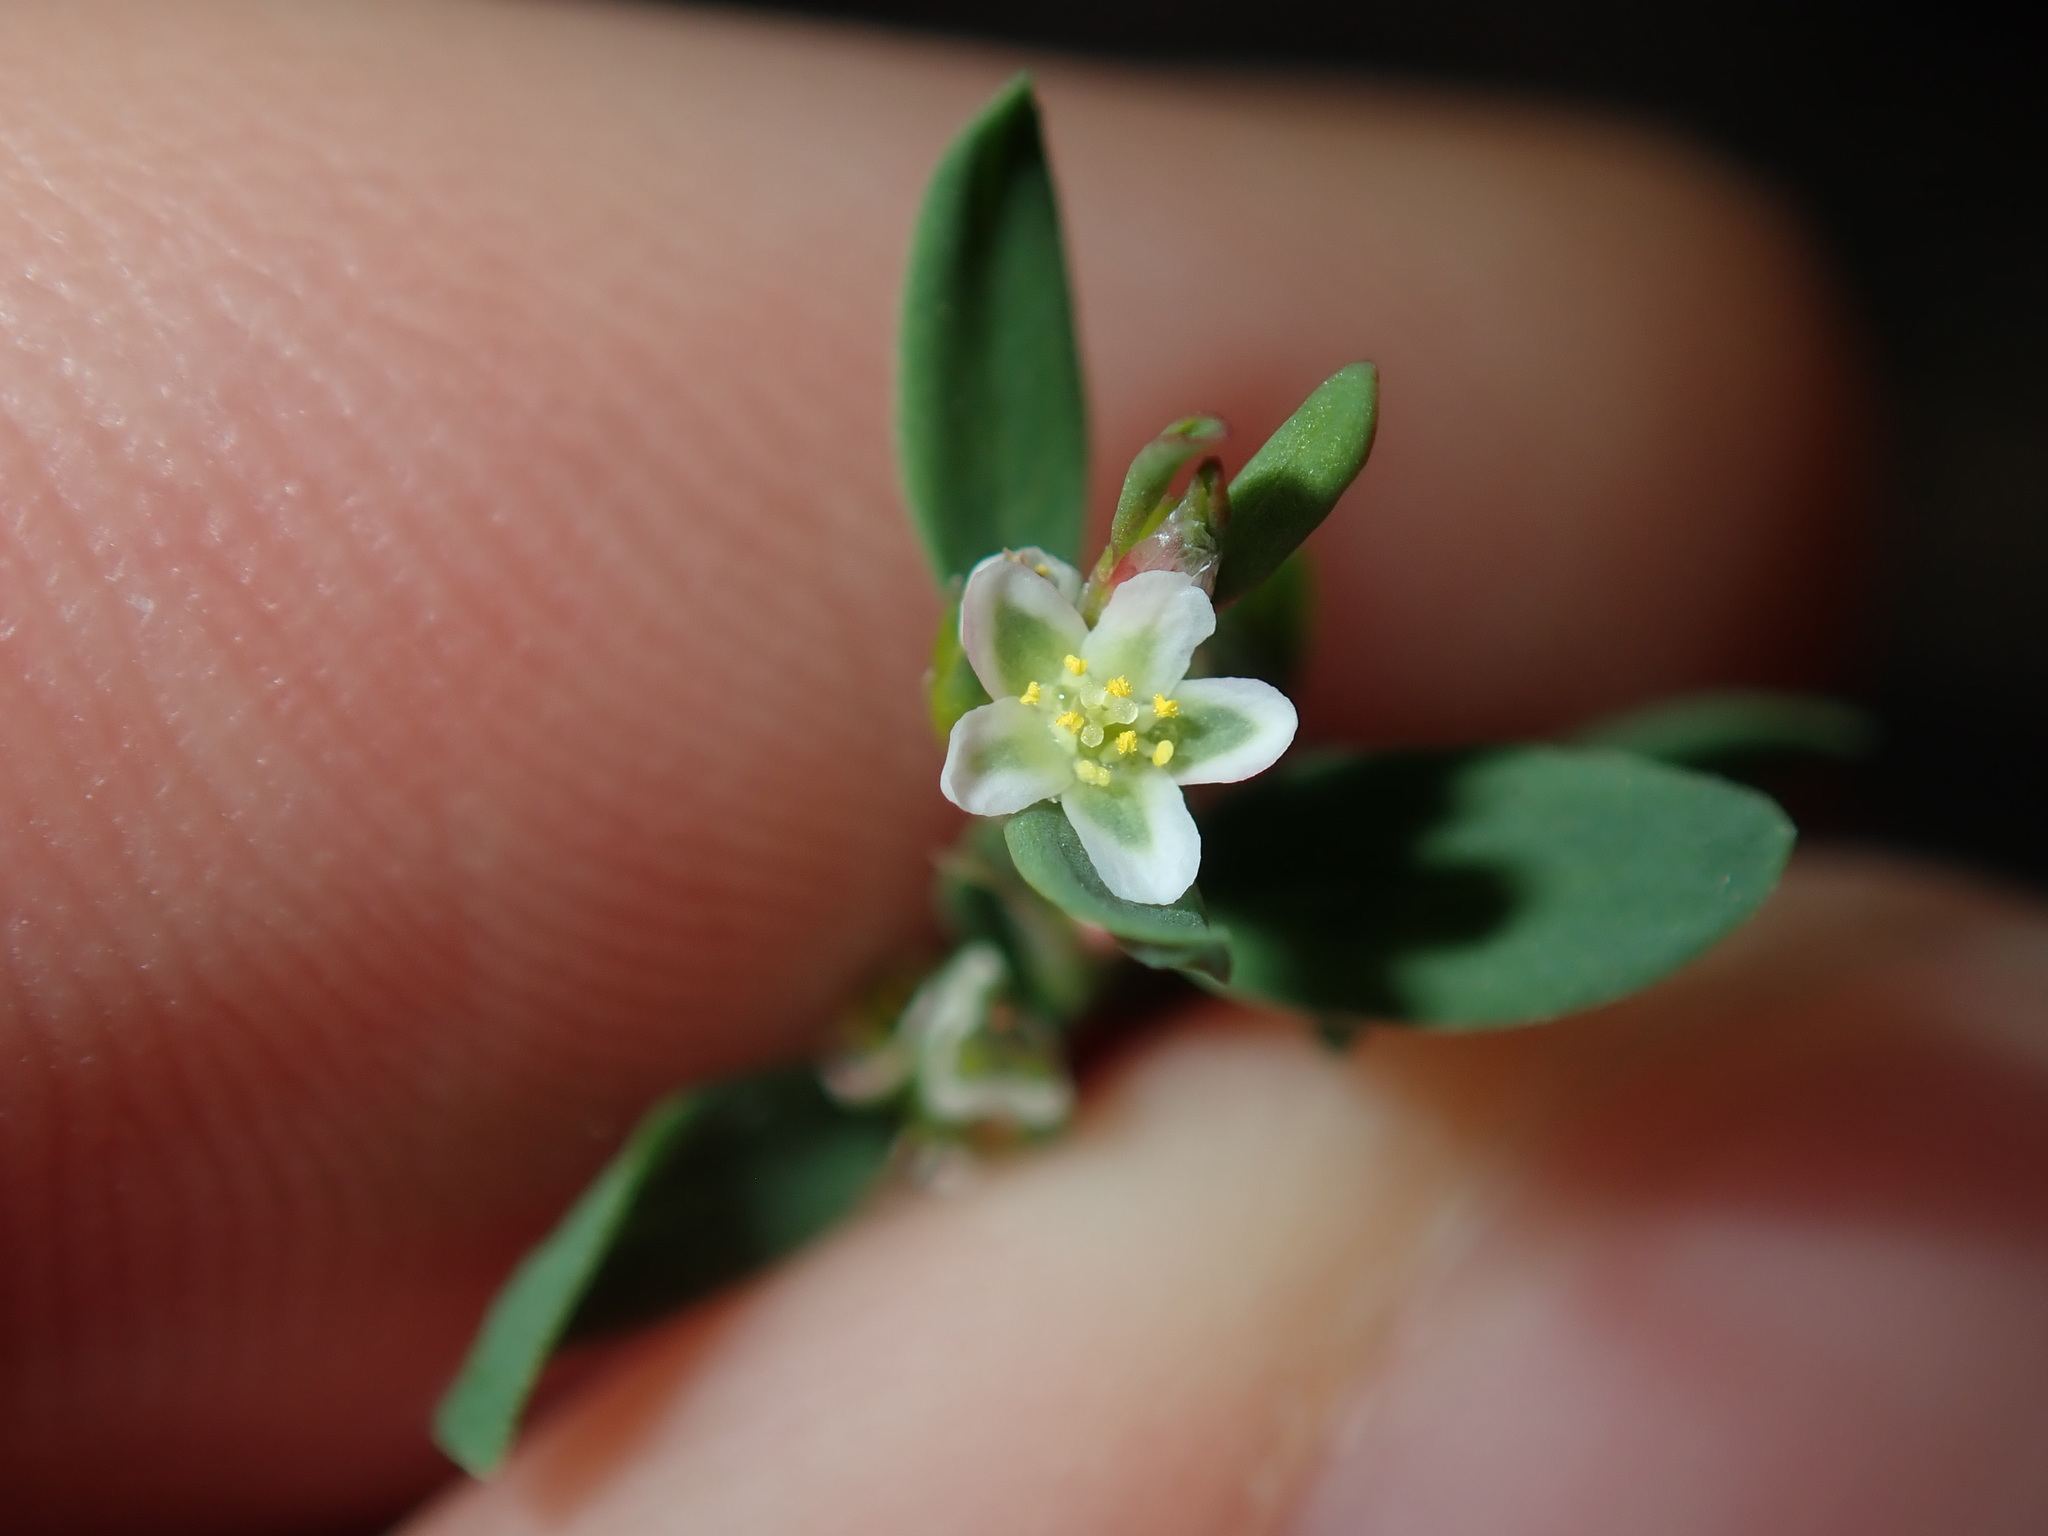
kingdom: Plantae
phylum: Tracheophyta
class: Magnoliopsida
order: Caryophyllales
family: Polygonaceae
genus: Polygonum
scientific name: Polygonum aviculare
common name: Prostrate knotweed
